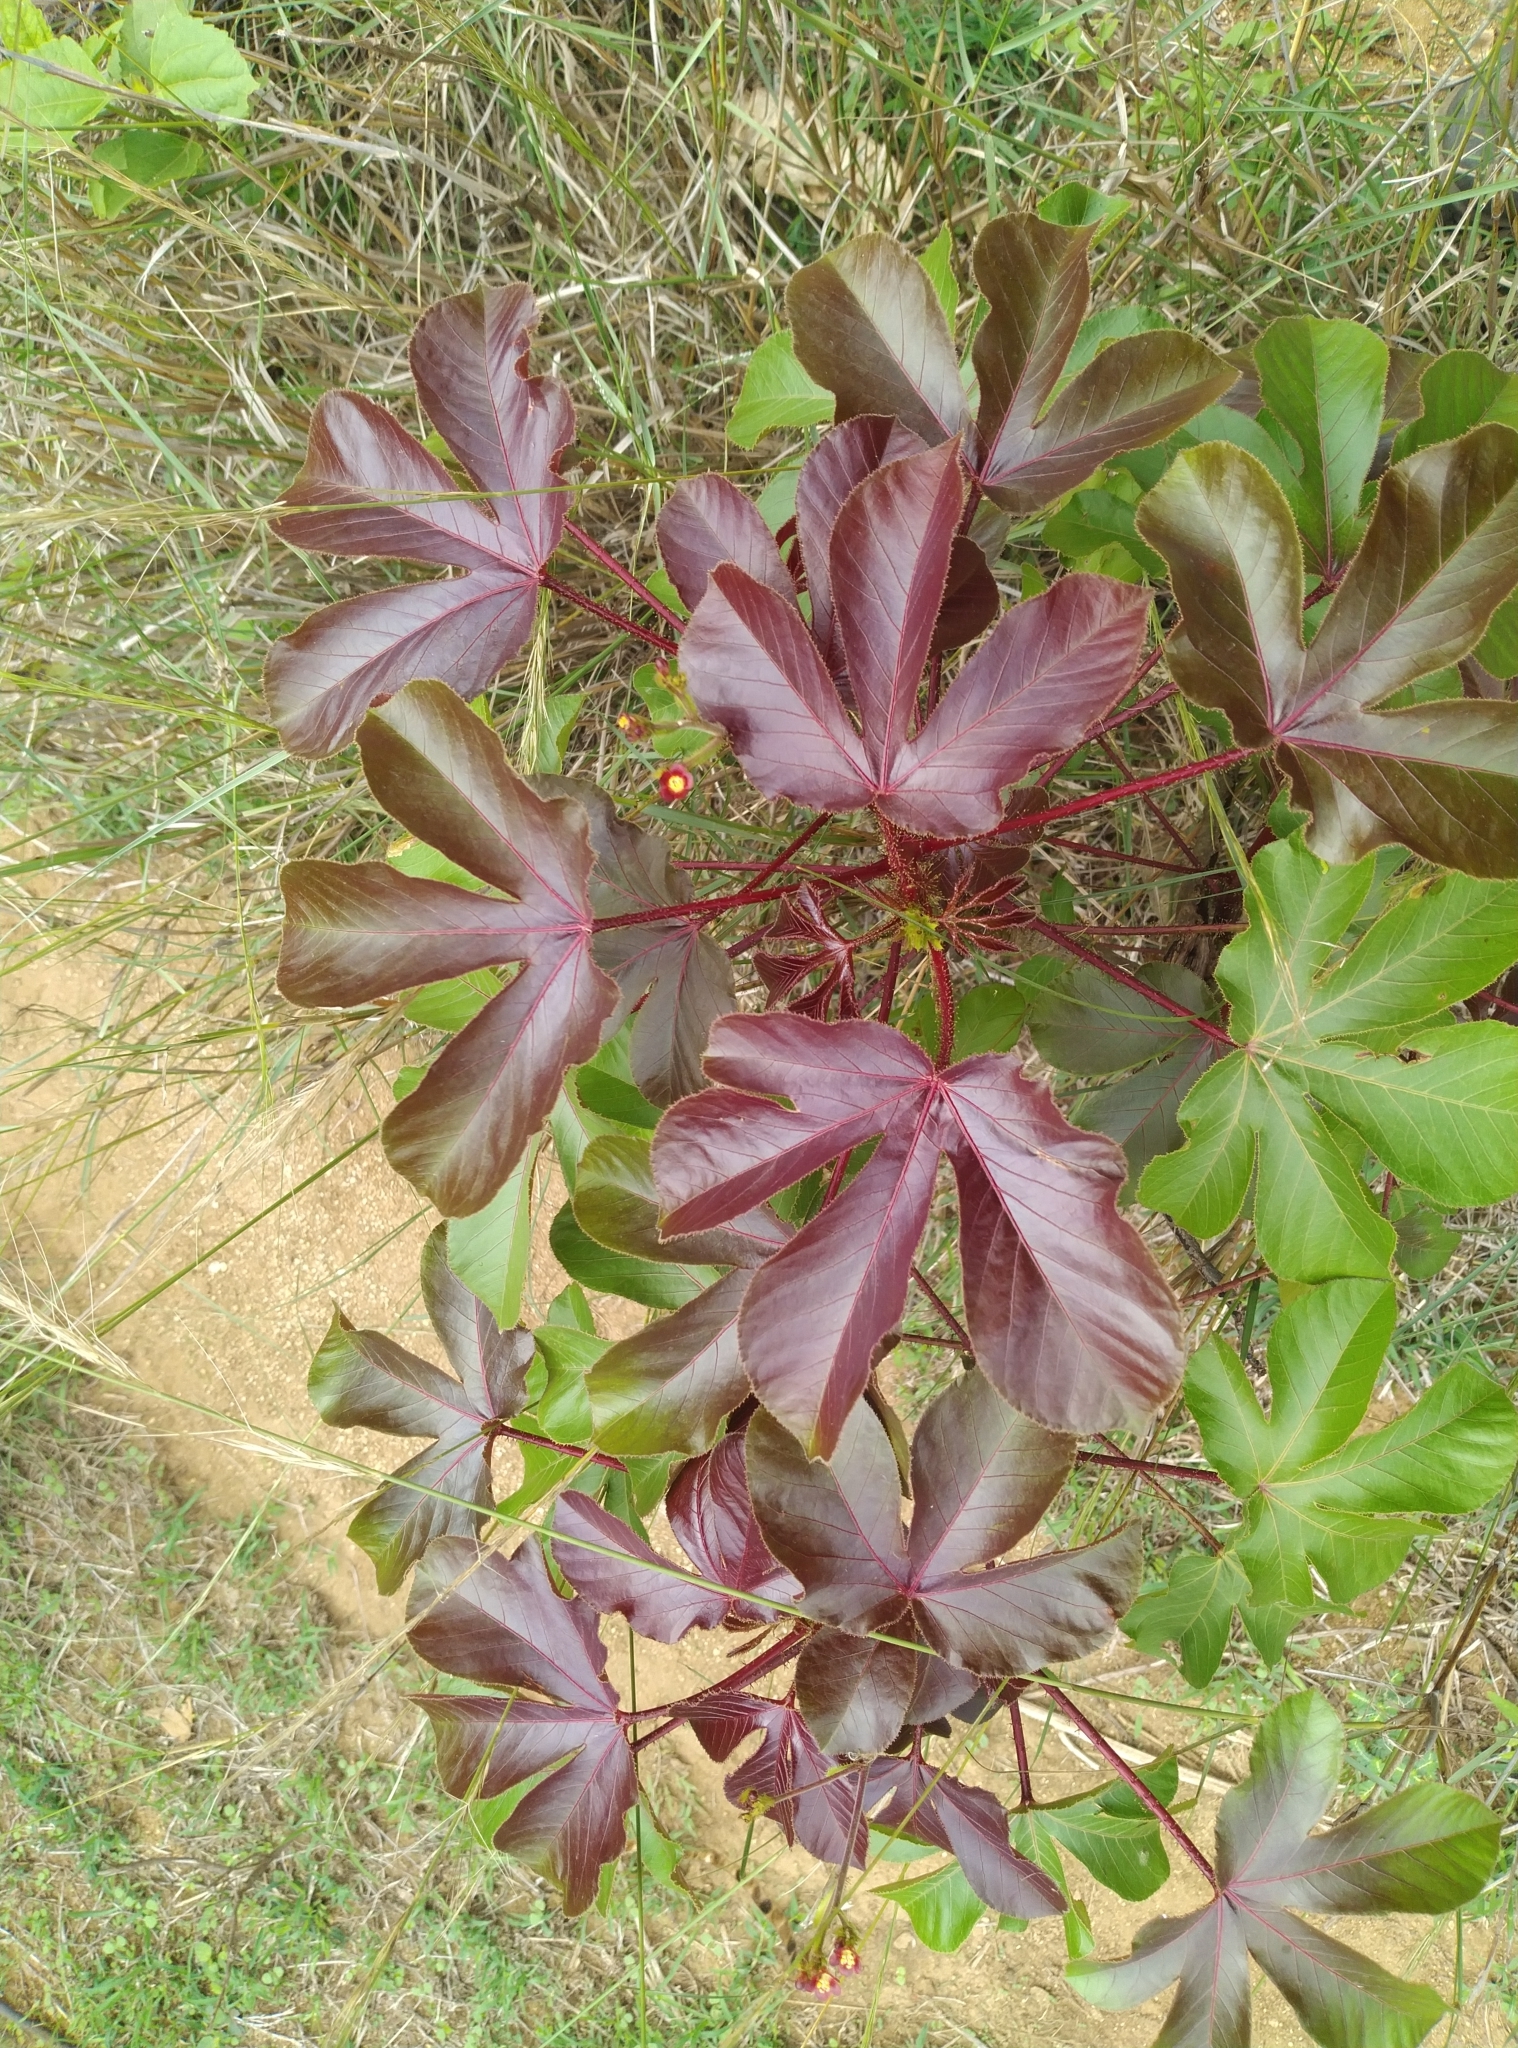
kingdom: Plantae
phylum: Tracheophyta
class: Magnoliopsida
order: Malpighiales
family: Euphorbiaceae
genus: Jatropha
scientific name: Jatropha gossypiifolia
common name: Bellyache bush
